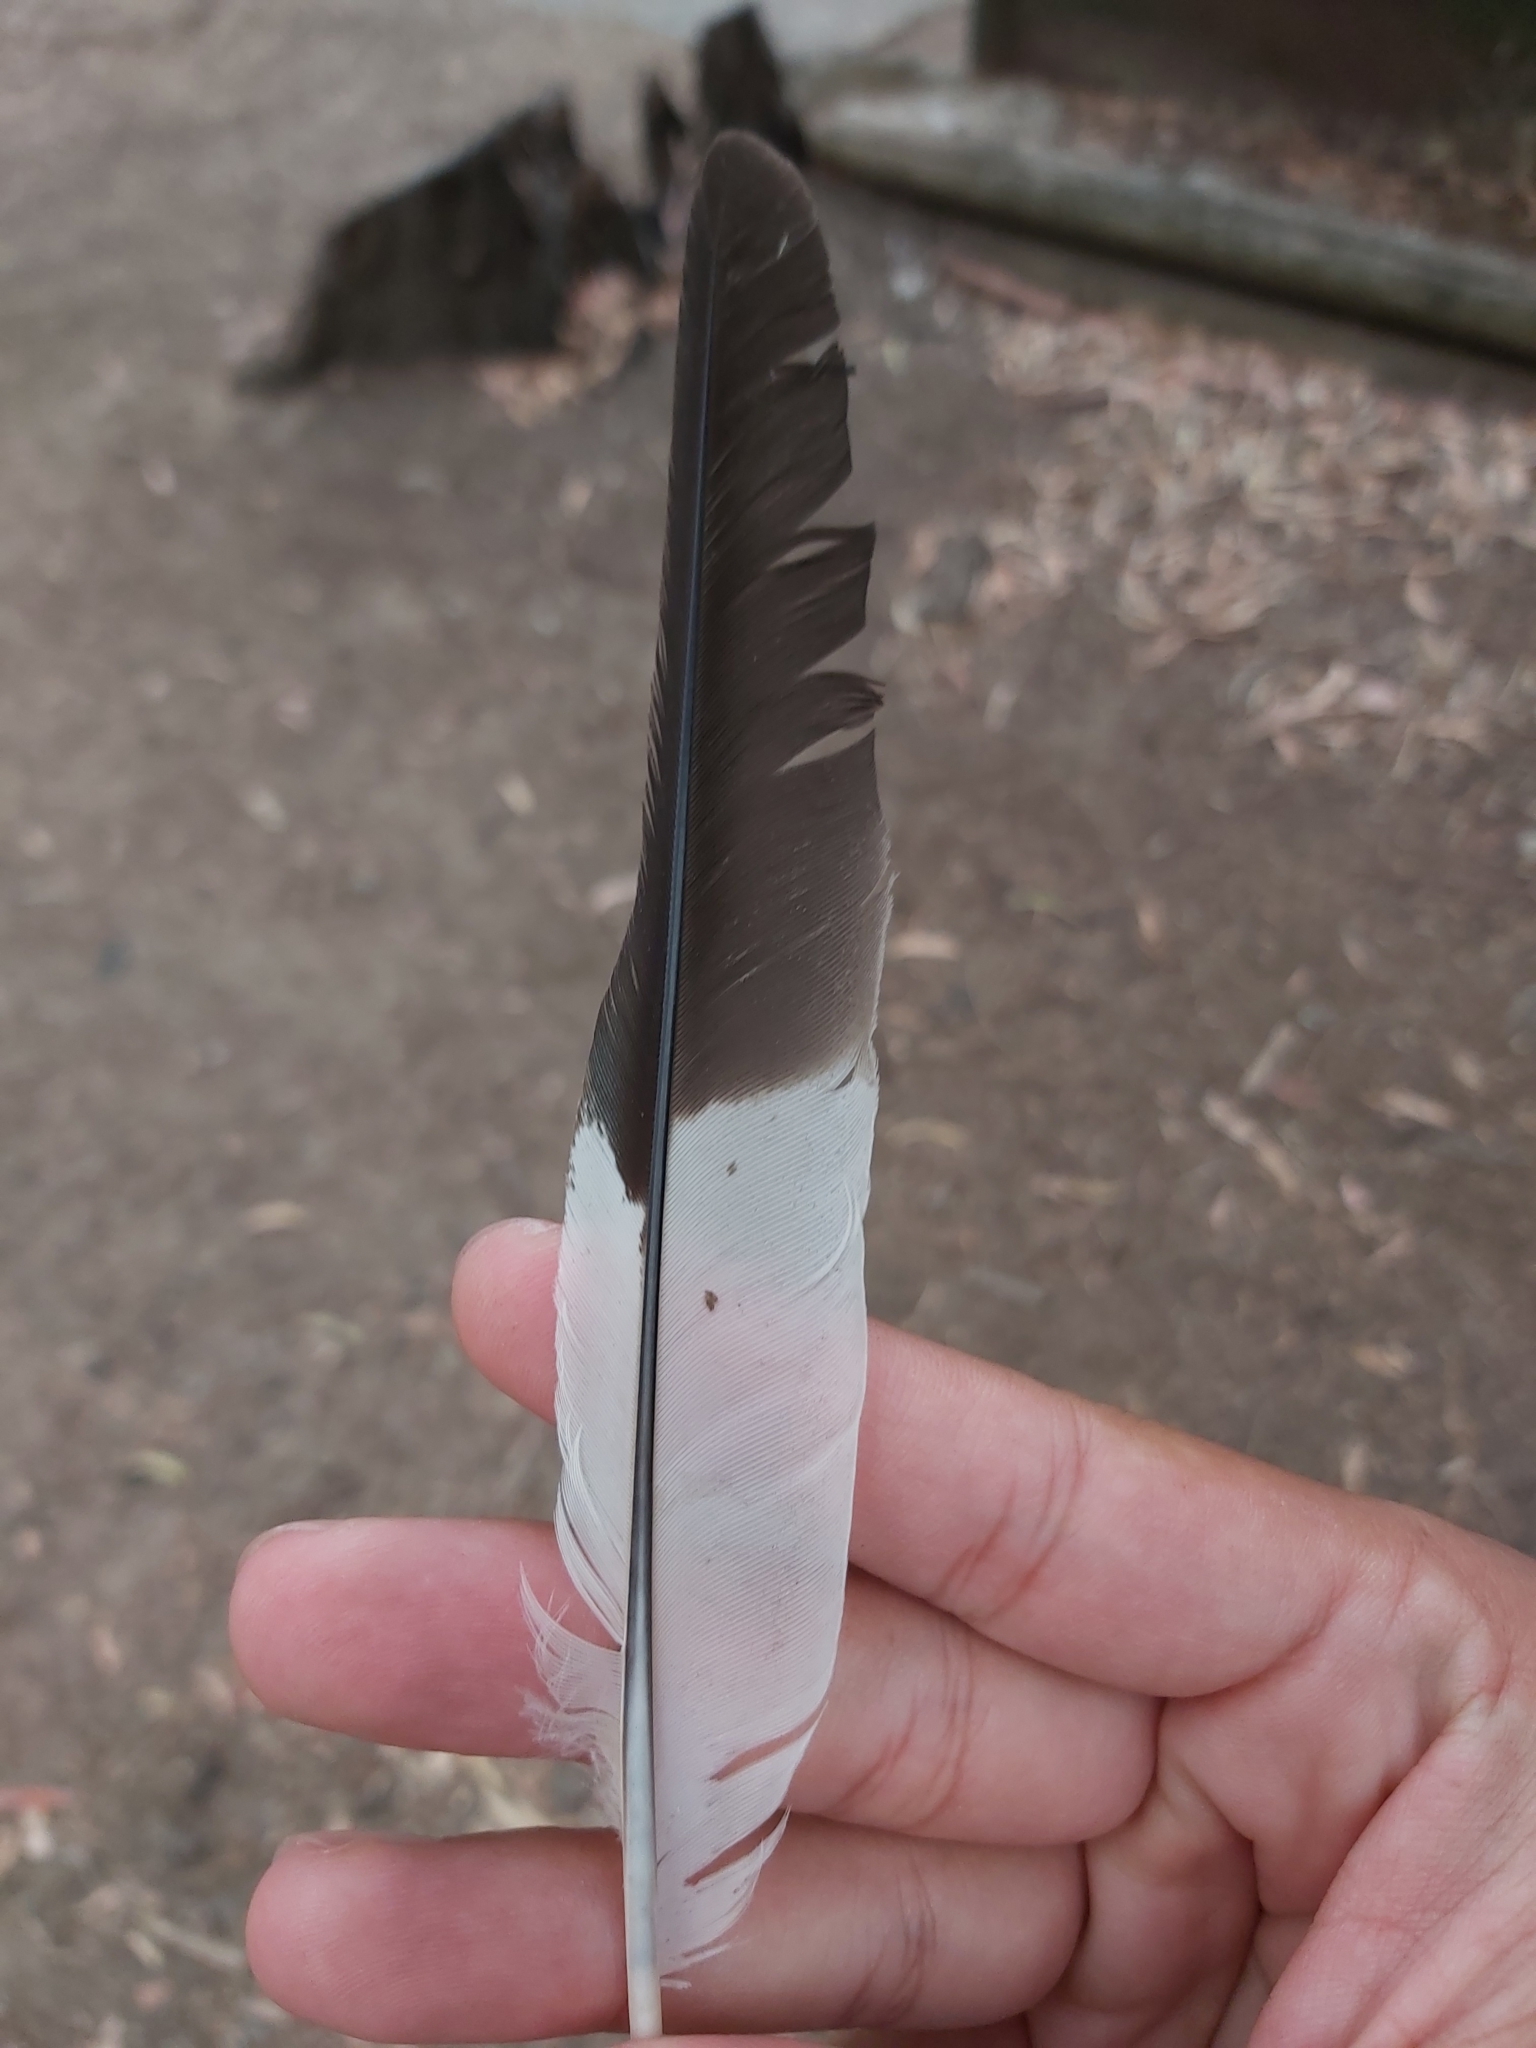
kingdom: Animalia
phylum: Chordata
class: Aves
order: Coraciiformes
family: Alcedinidae
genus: Dacelo
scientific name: Dacelo novaeguineae
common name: Laughing kookaburra
